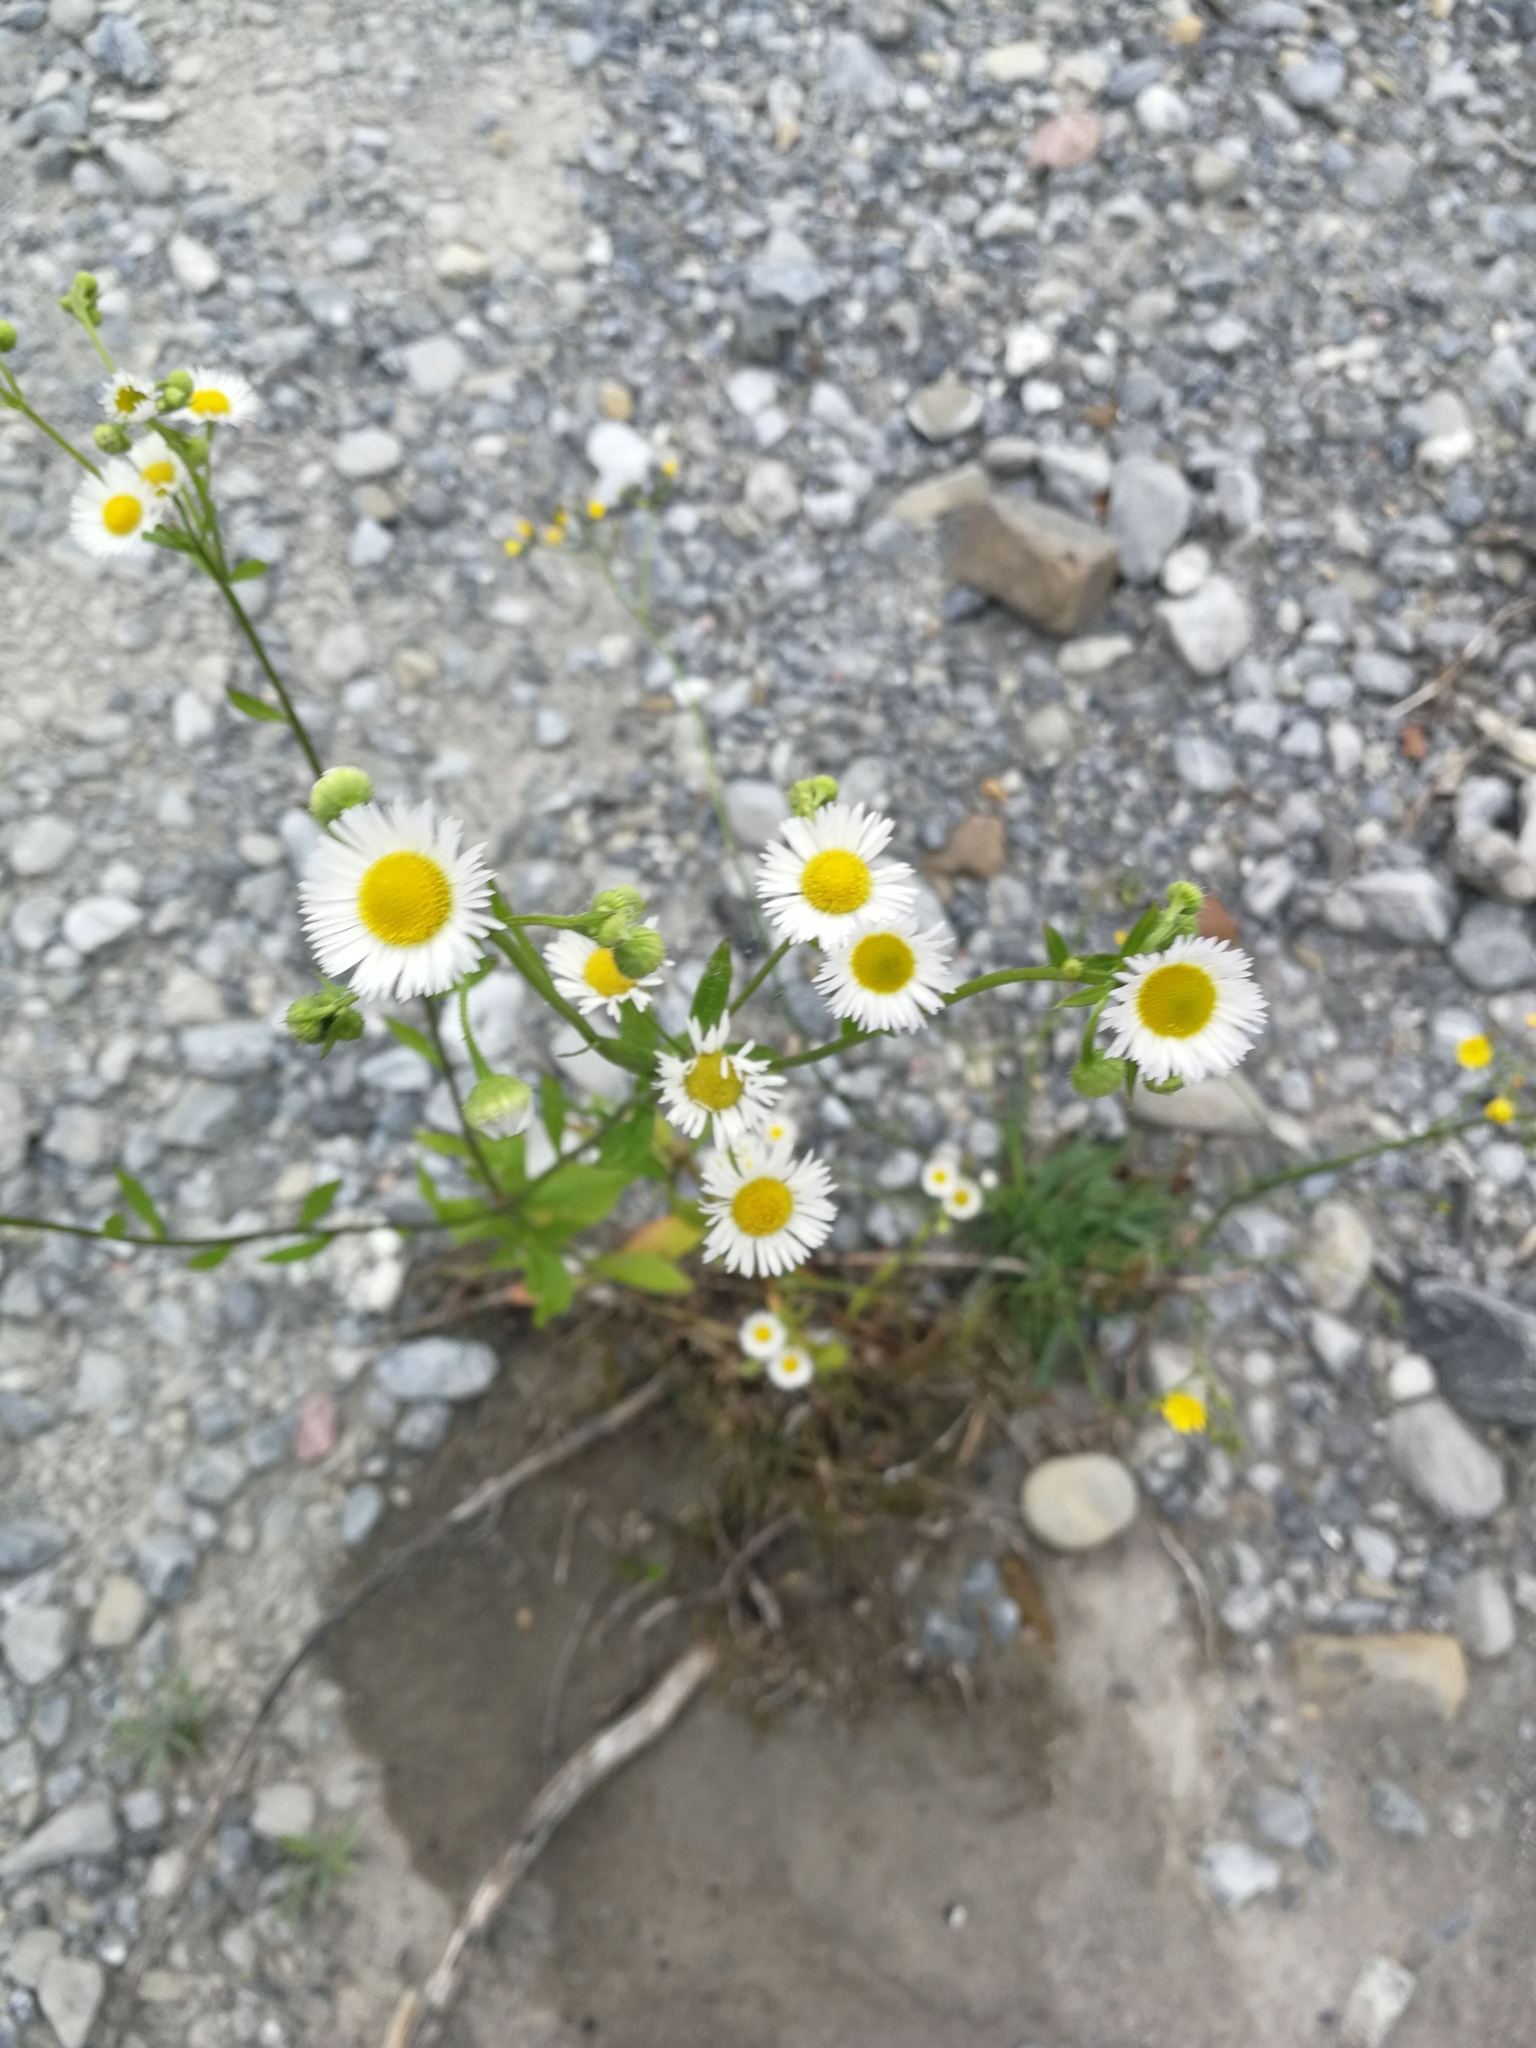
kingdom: Plantae
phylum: Tracheophyta
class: Magnoliopsida
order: Asterales
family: Asteraceae
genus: Erigeron
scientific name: Erigeron annuus
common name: Tall fleabane
